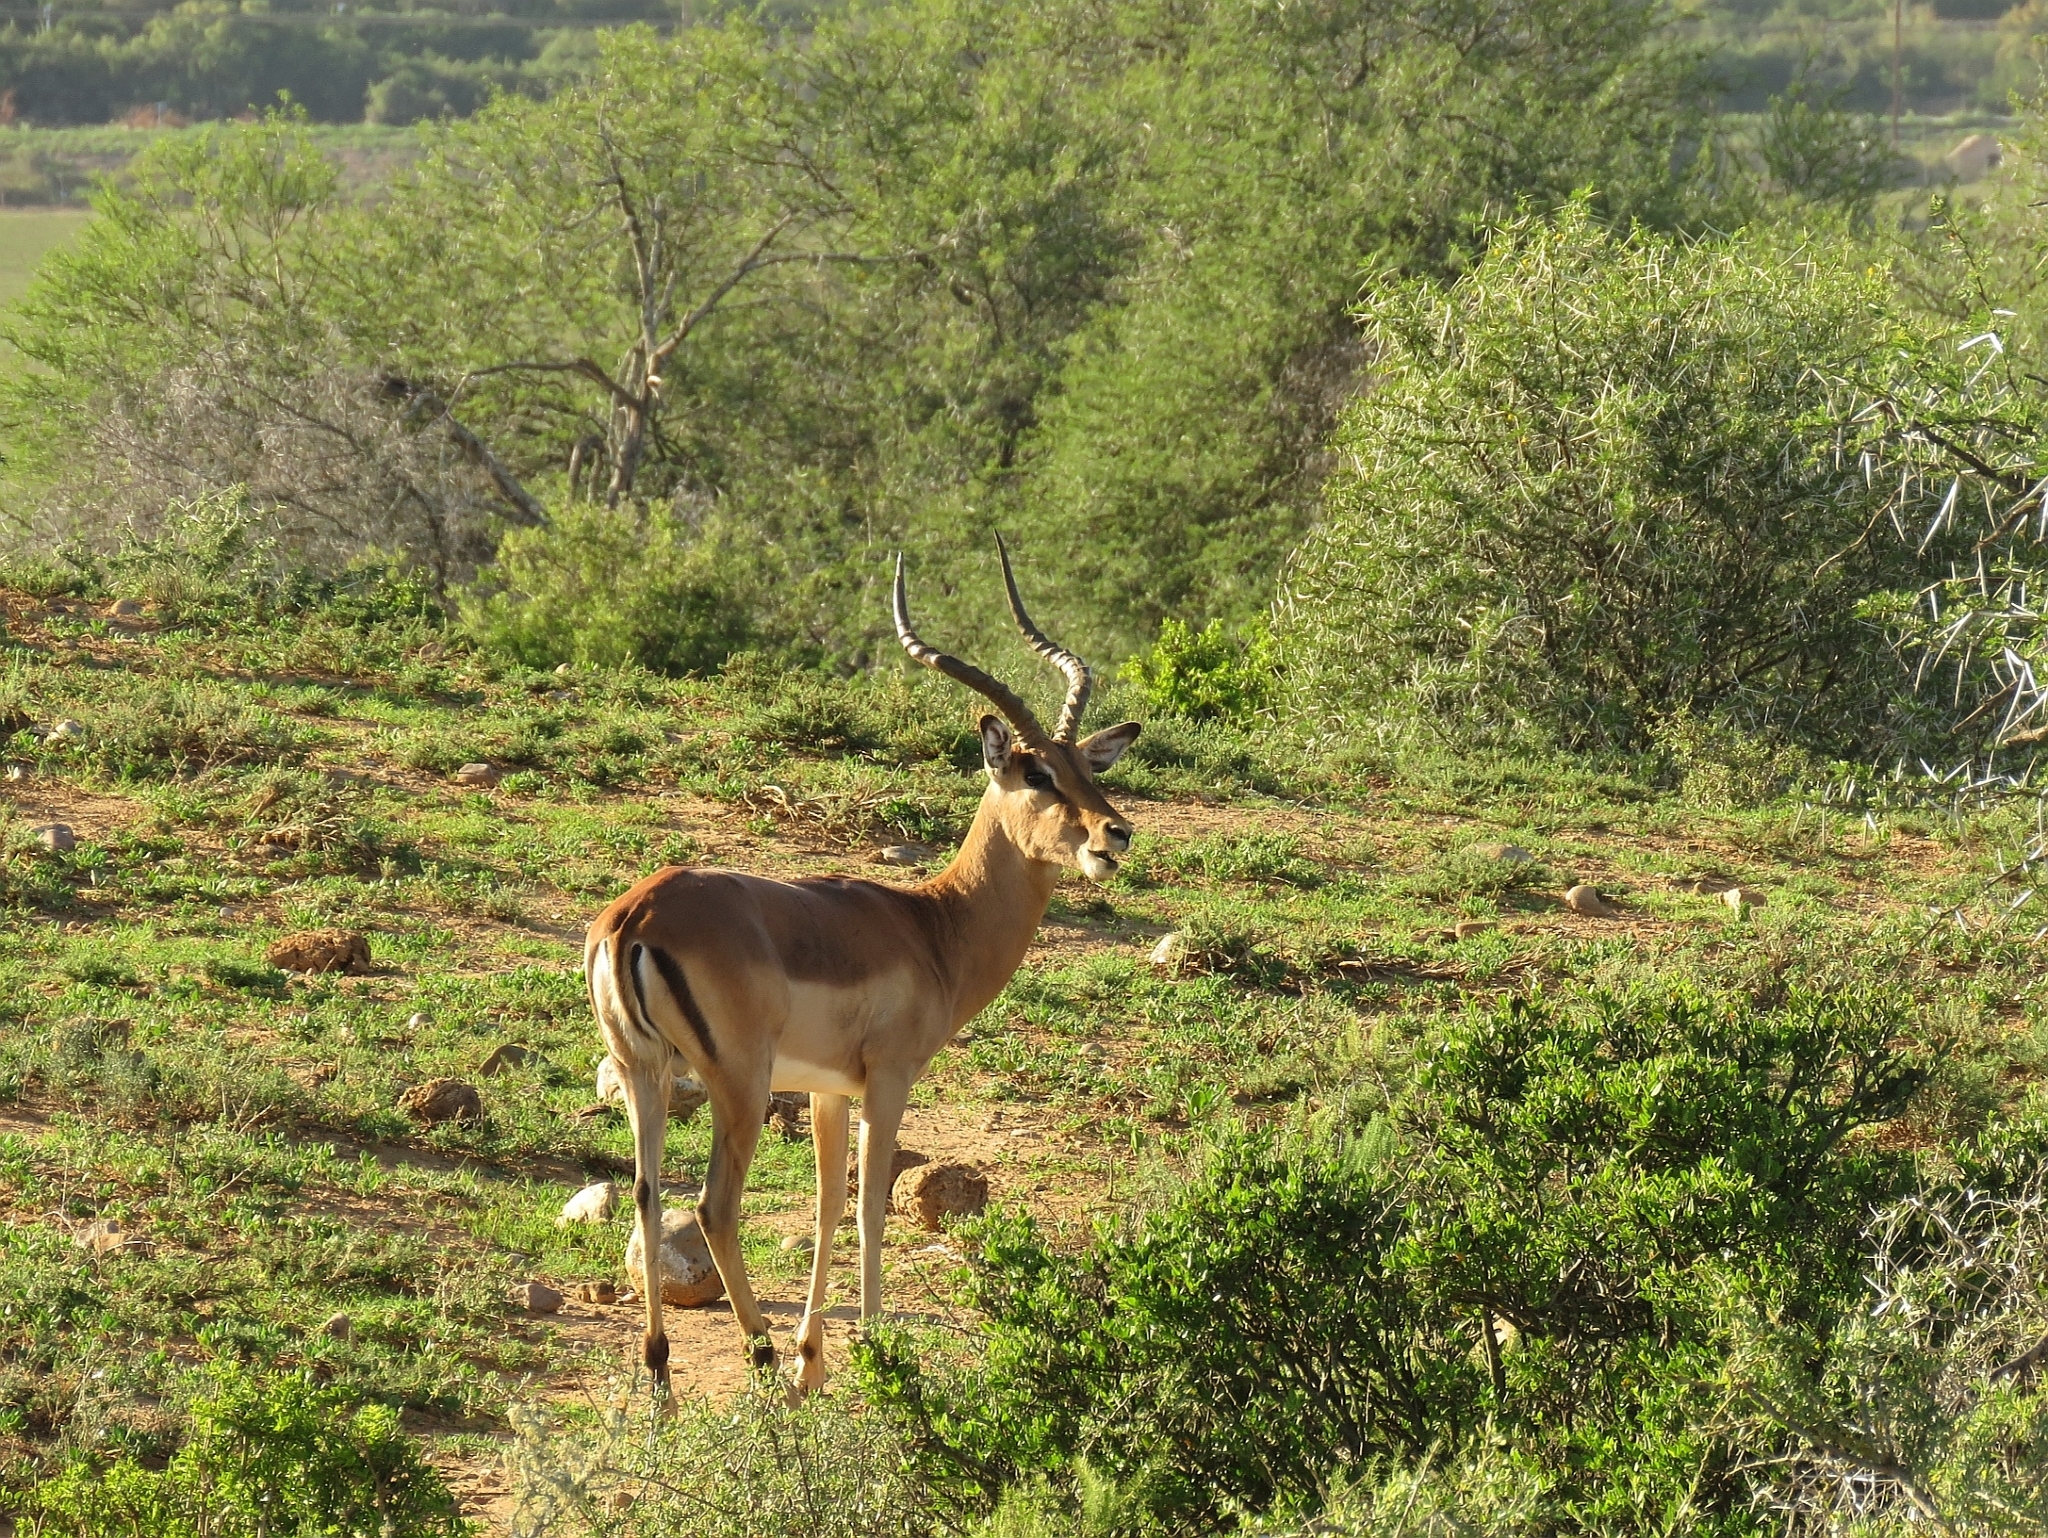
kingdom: Animalia
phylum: Chordata
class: Mammalia
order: Artiodactyla
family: Bovidae
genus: Aepyceros
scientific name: Aepyceros melampus
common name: Impala
